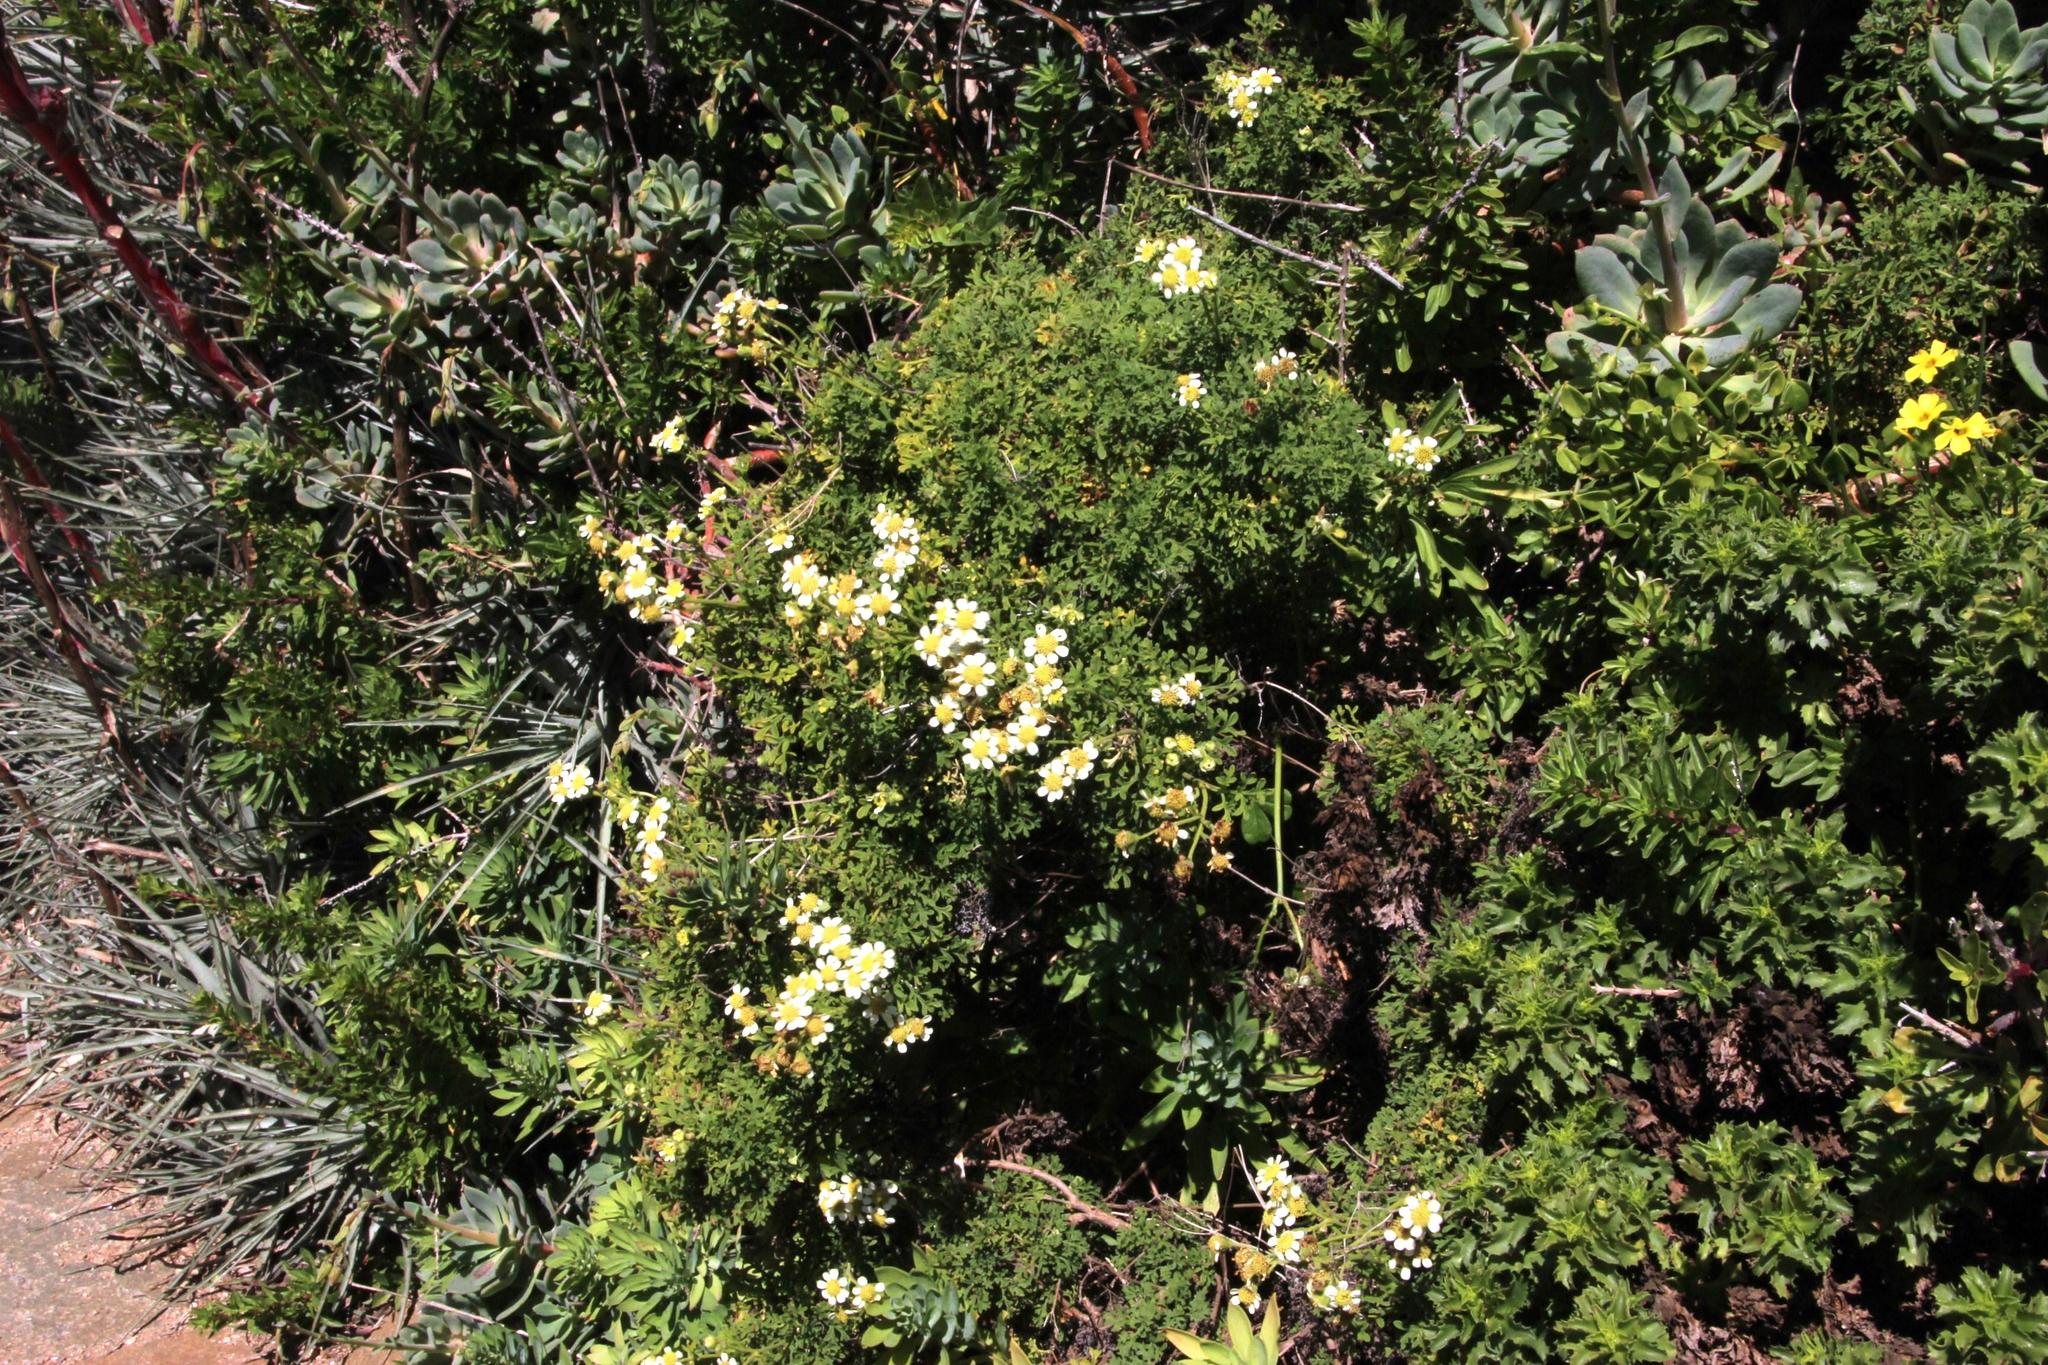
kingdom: Plantae
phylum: Tracheophyta
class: Magnoliopsida
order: Asterales
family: Asteraceae
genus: Bahia
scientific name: Bahia ambrosioides
